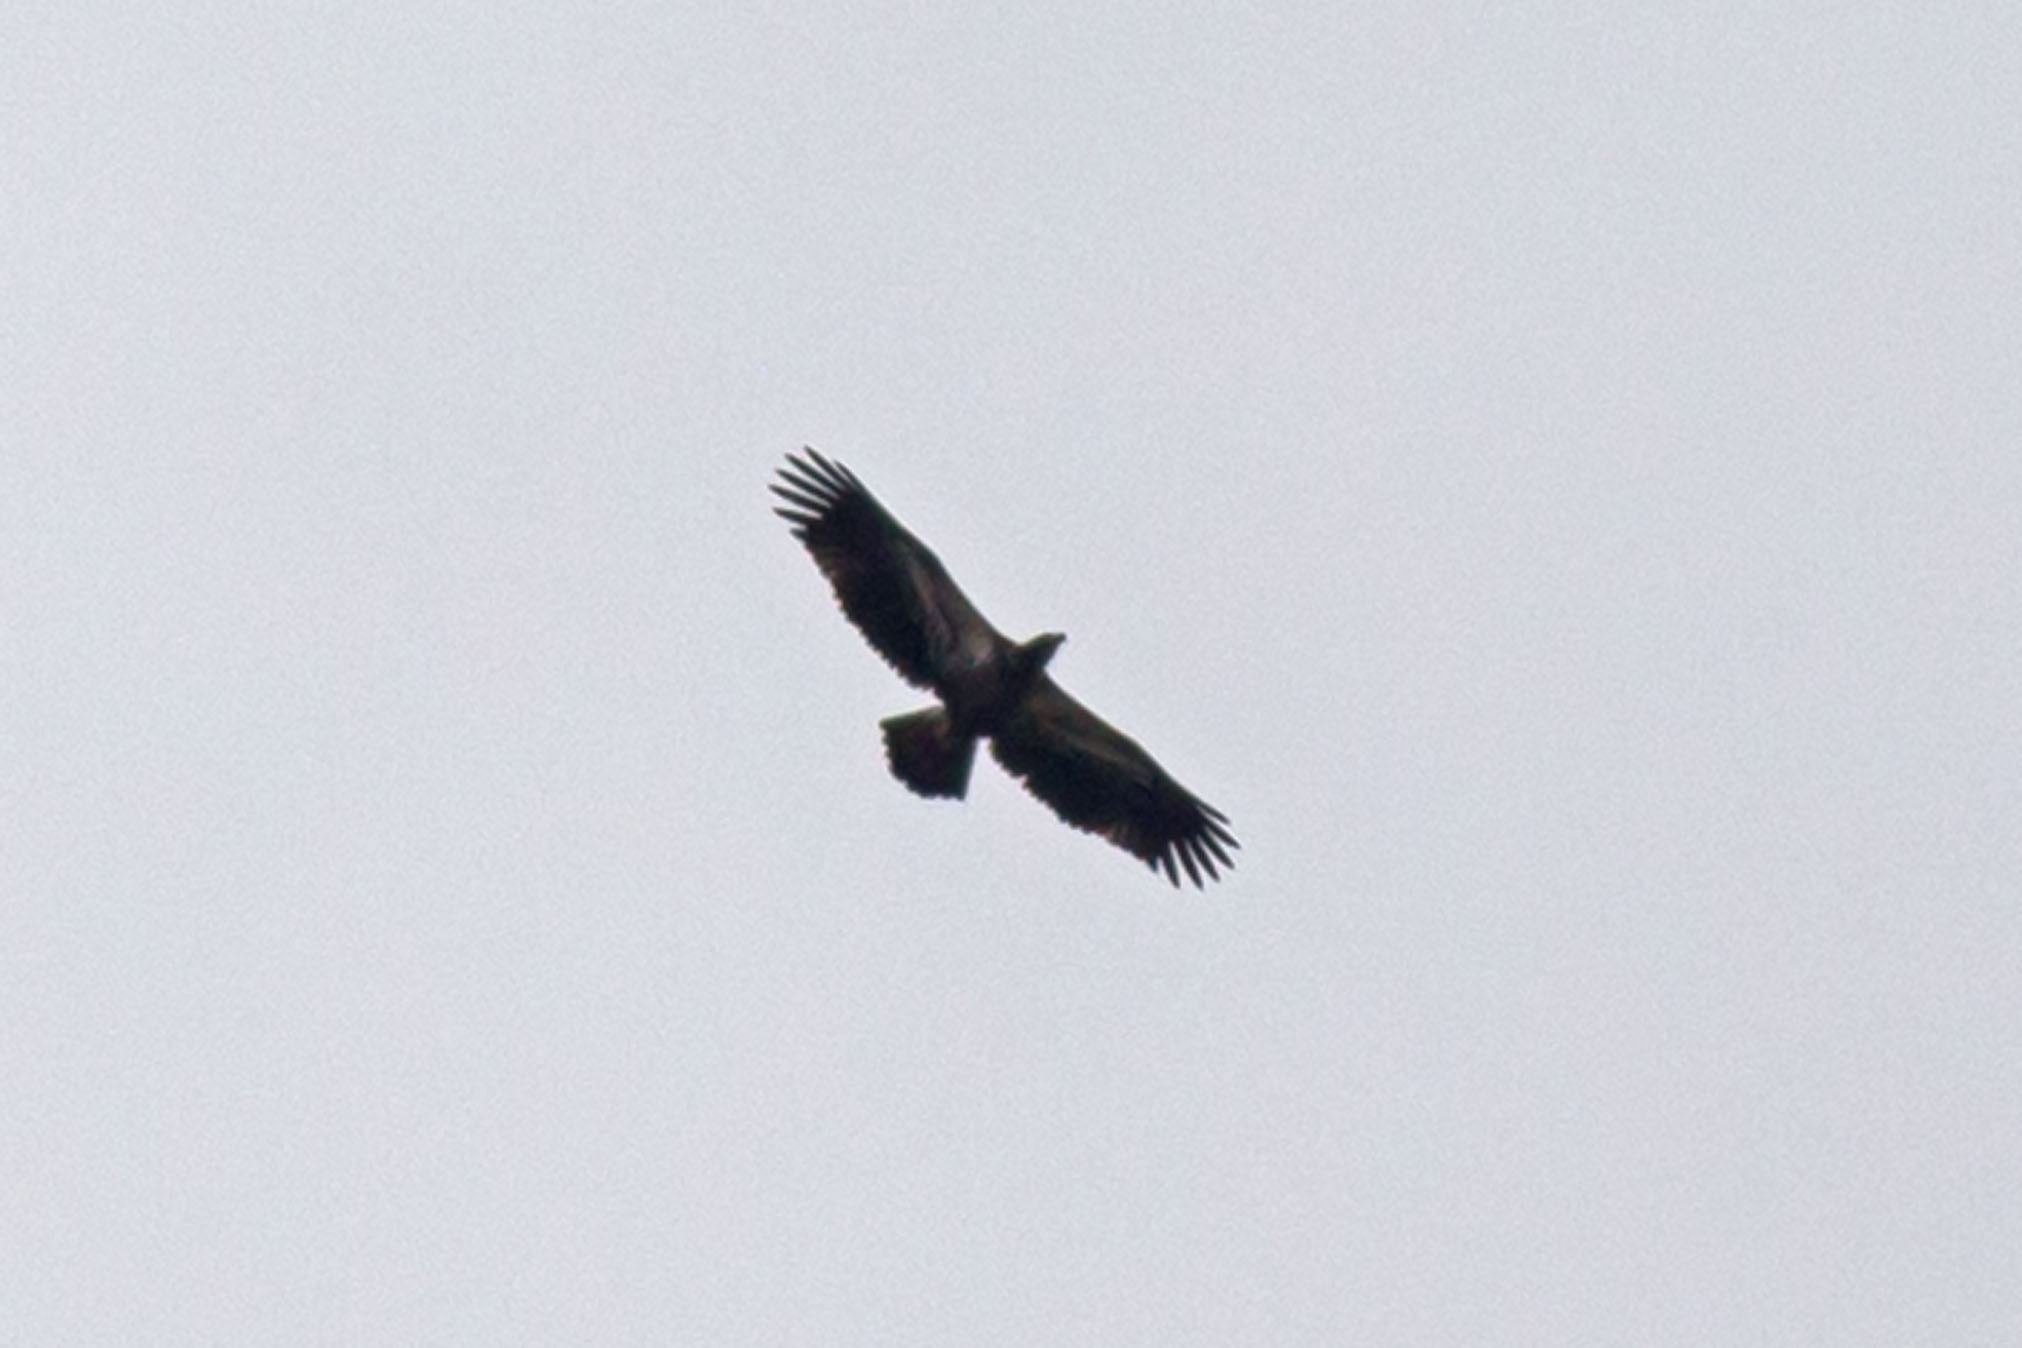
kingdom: Animalia
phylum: Chordata
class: Aves
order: Accipitriformes
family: Accipitridae
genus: Haliaeetus
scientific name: Haliaeetus leucocephalus
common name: Bald eagle
